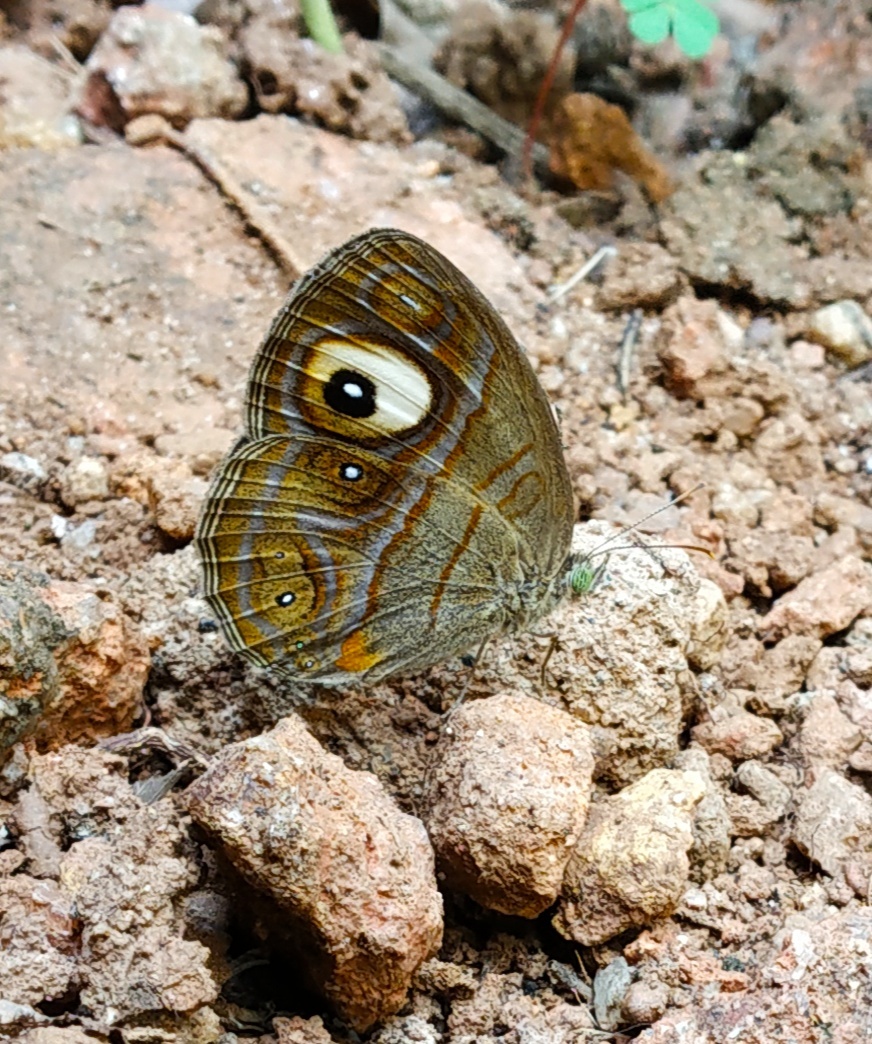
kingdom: Animalia
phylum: Arthropoda
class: Insecta
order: Lepidoptera
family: Nymphalidae
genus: Mycalesis
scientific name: Mycalesis patnia
